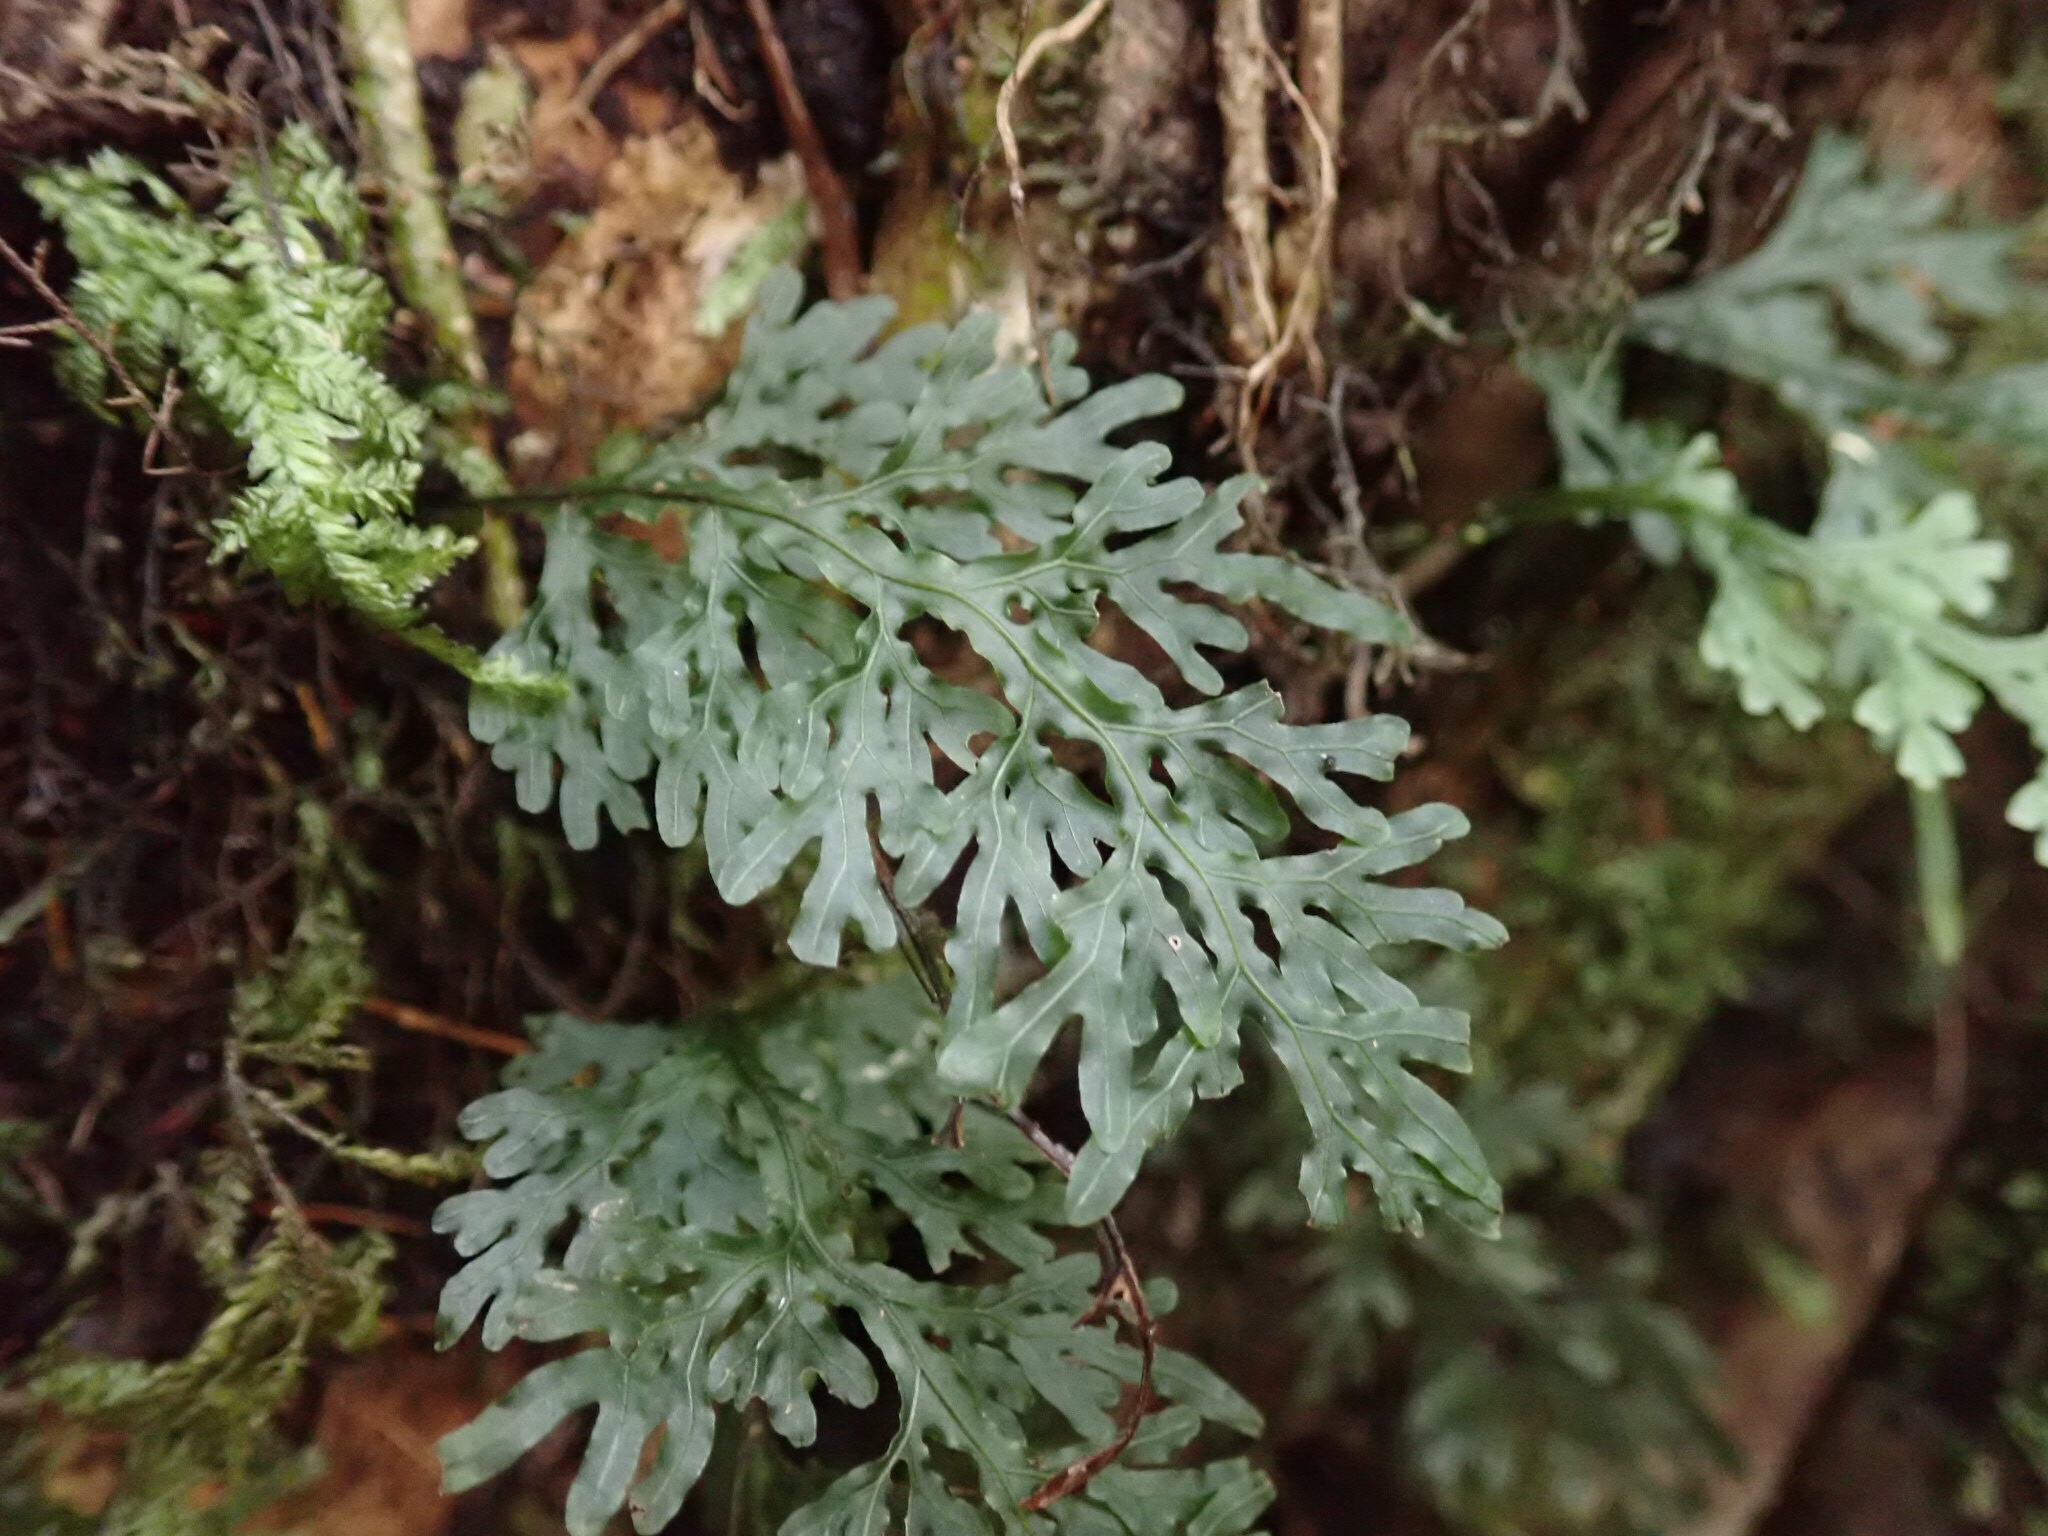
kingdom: Plantae
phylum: Tracheophyta
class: Polypodiopsida
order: Hymenophyllales
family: Hymenophyllaceae
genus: Hymenophyllum
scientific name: Hymenophyllum caudiculatum
